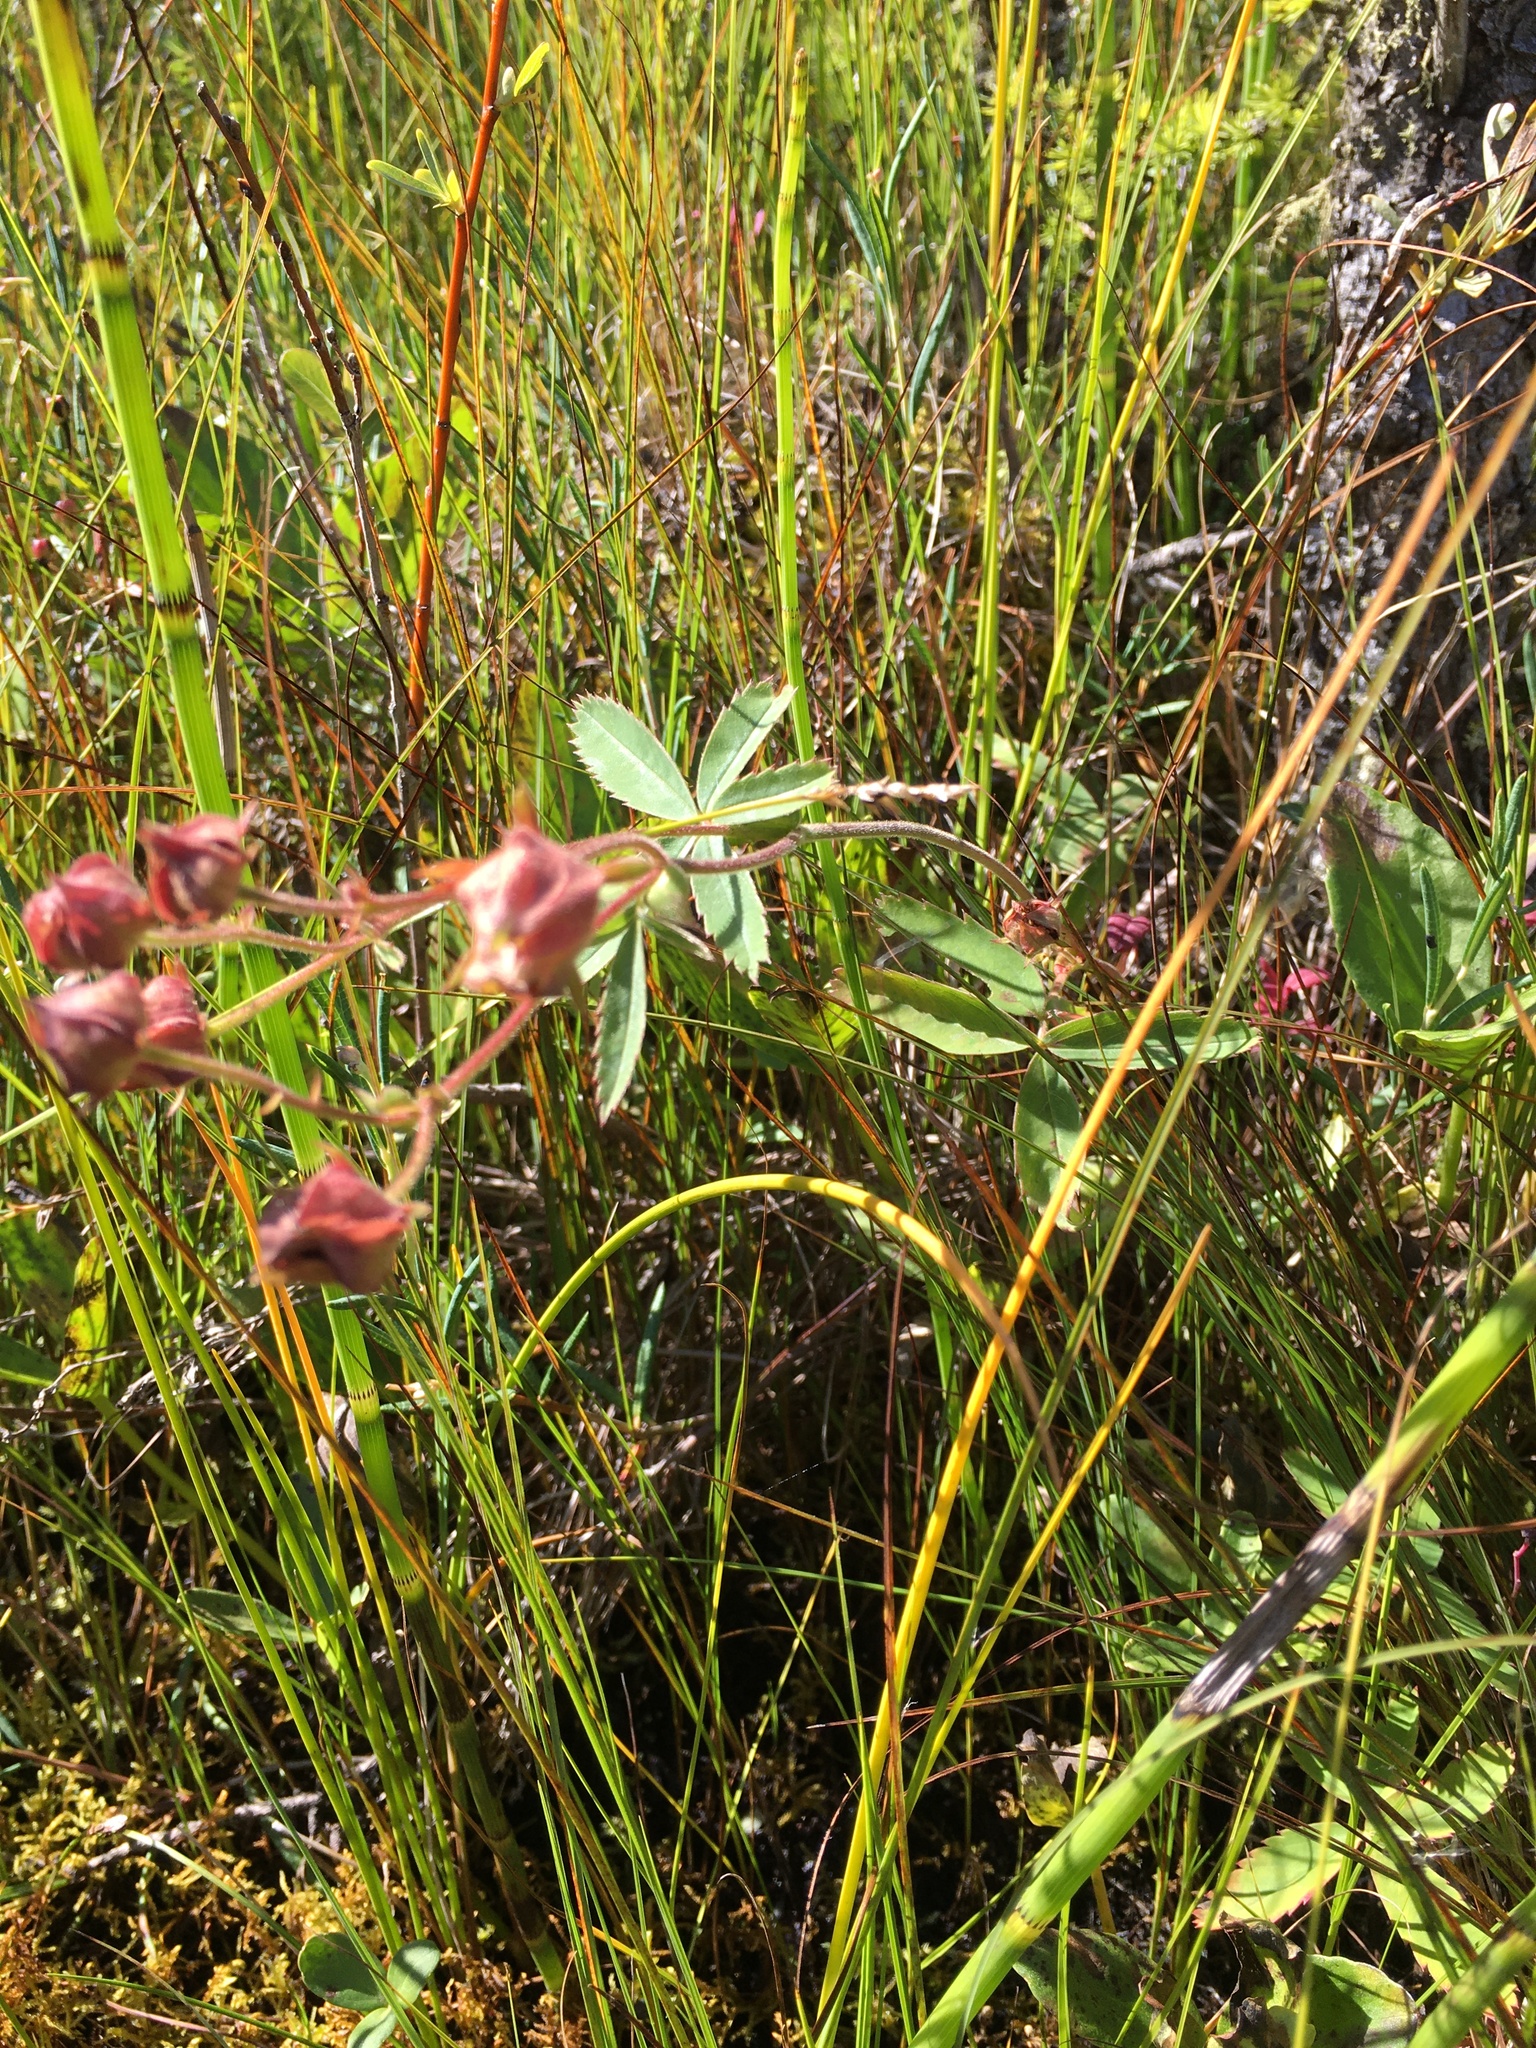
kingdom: Plantae
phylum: Tracheophyta
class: Magnoliopsida
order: Rosales
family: Rosaceae
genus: Comarum
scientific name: Comarum palustre
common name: Marsh cinquefoil
